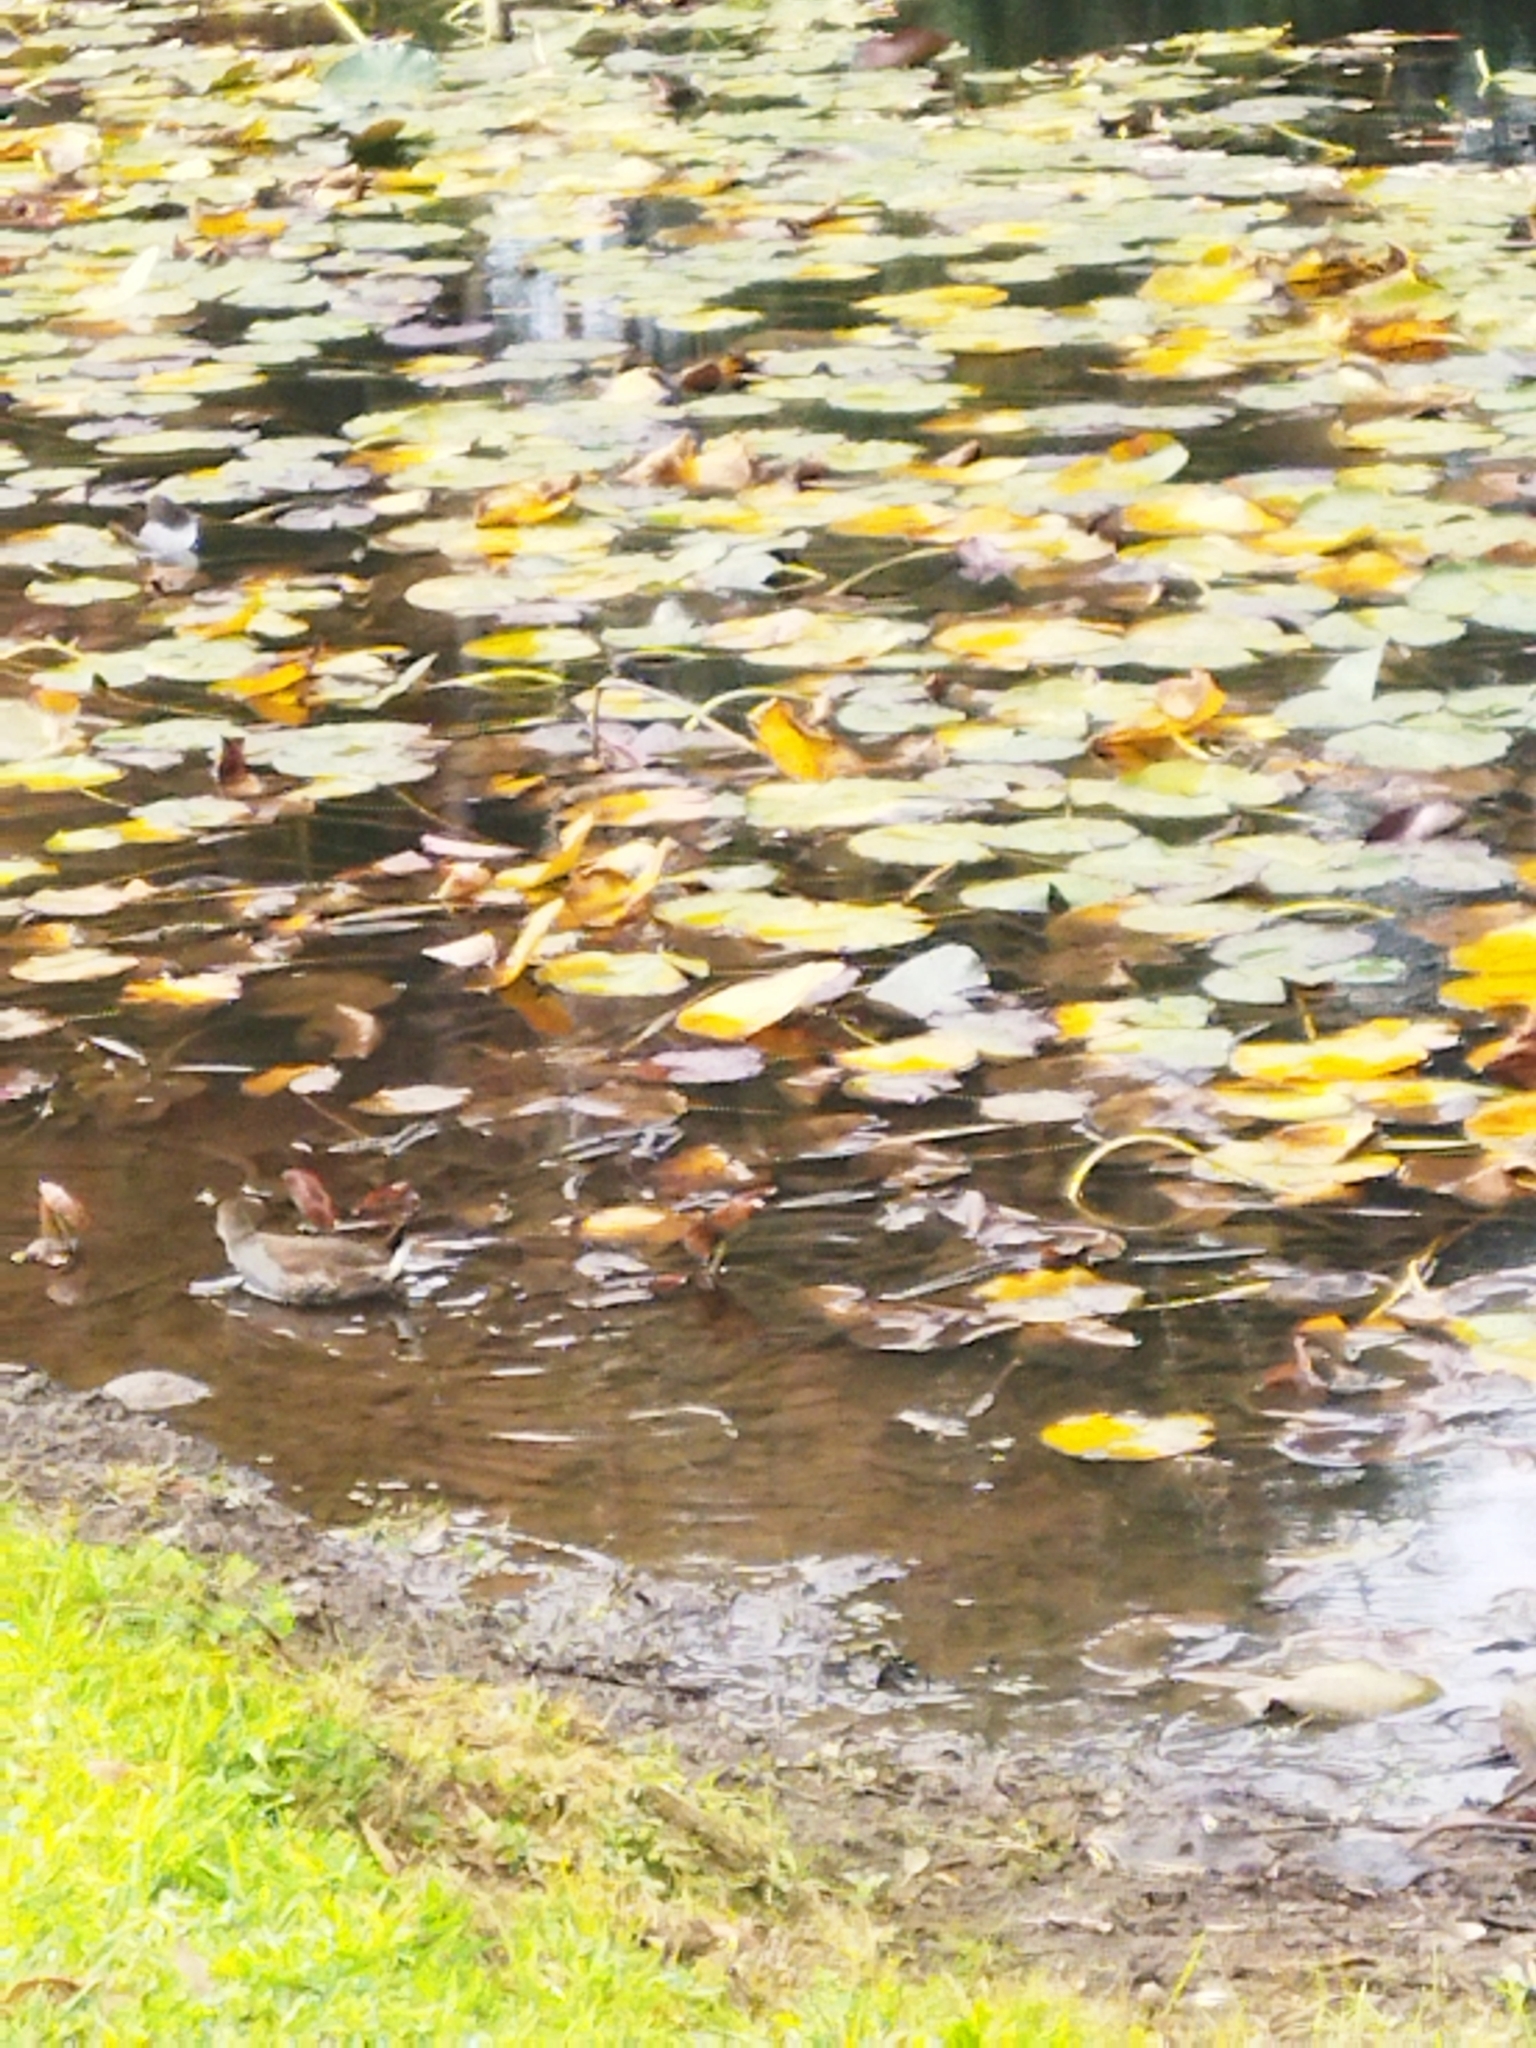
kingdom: Animalia
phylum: Chordata
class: Aves
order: Gruiformes
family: Rallidae
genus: Gallinula
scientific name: Gallinula melanops
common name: Spot-flanked gallinule
